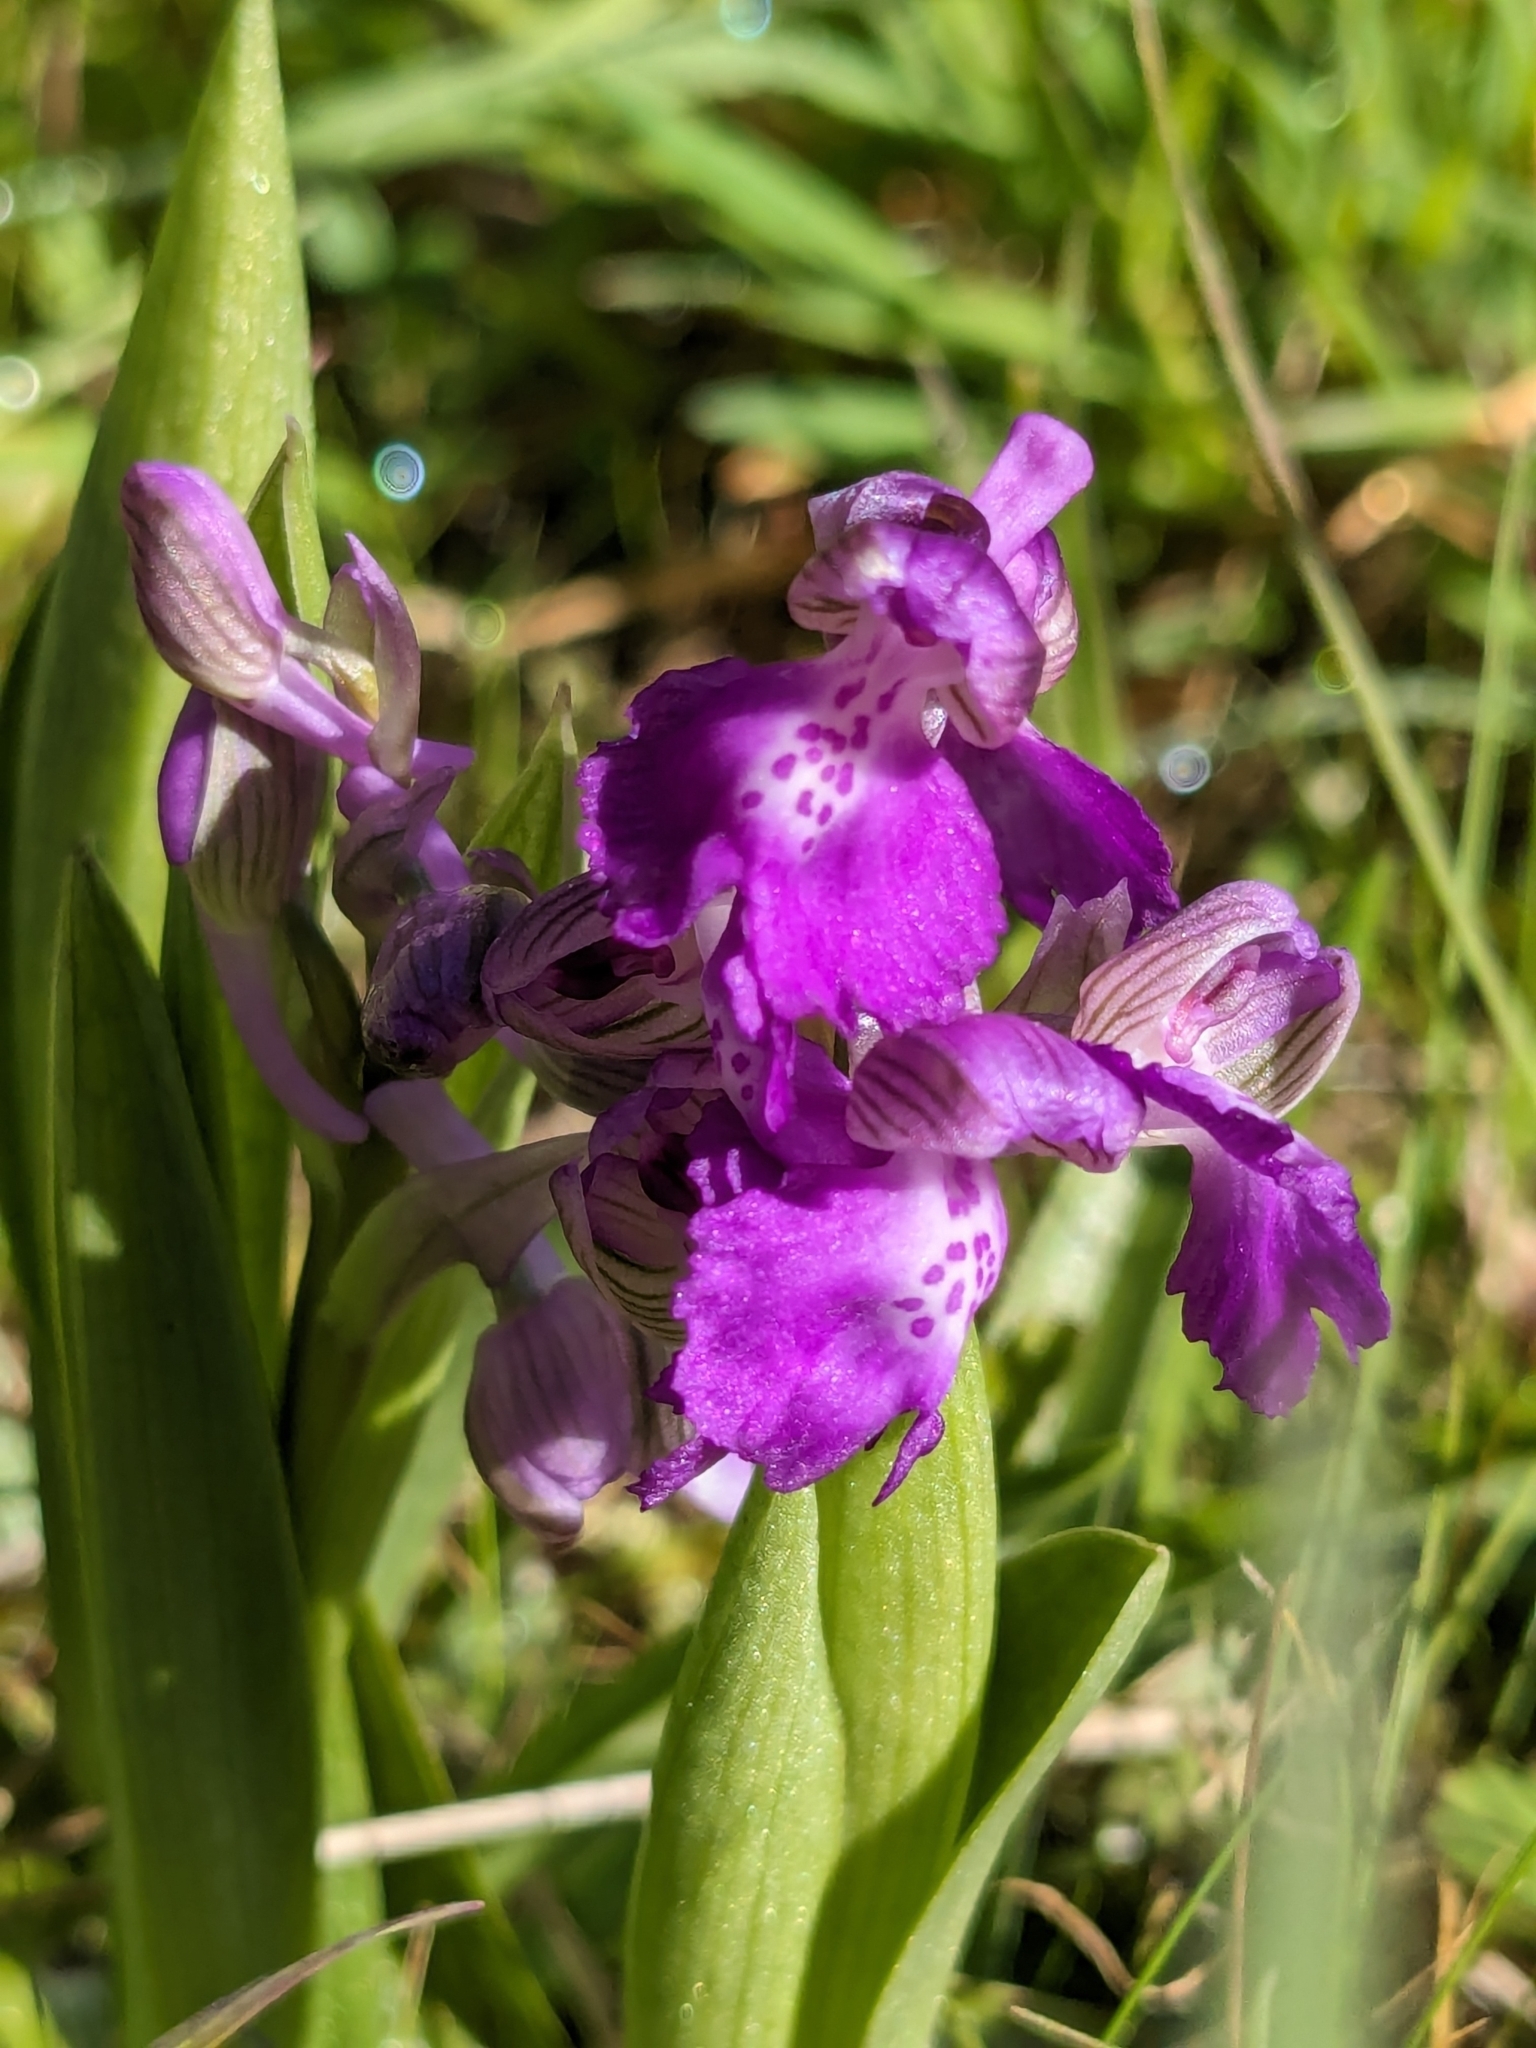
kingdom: Plantae
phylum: Tracheophyta
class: Liliopsida
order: Asparagales
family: Orchidaceae
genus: Anacamptis
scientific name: Anacamptis morio
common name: Green-winged orchid
